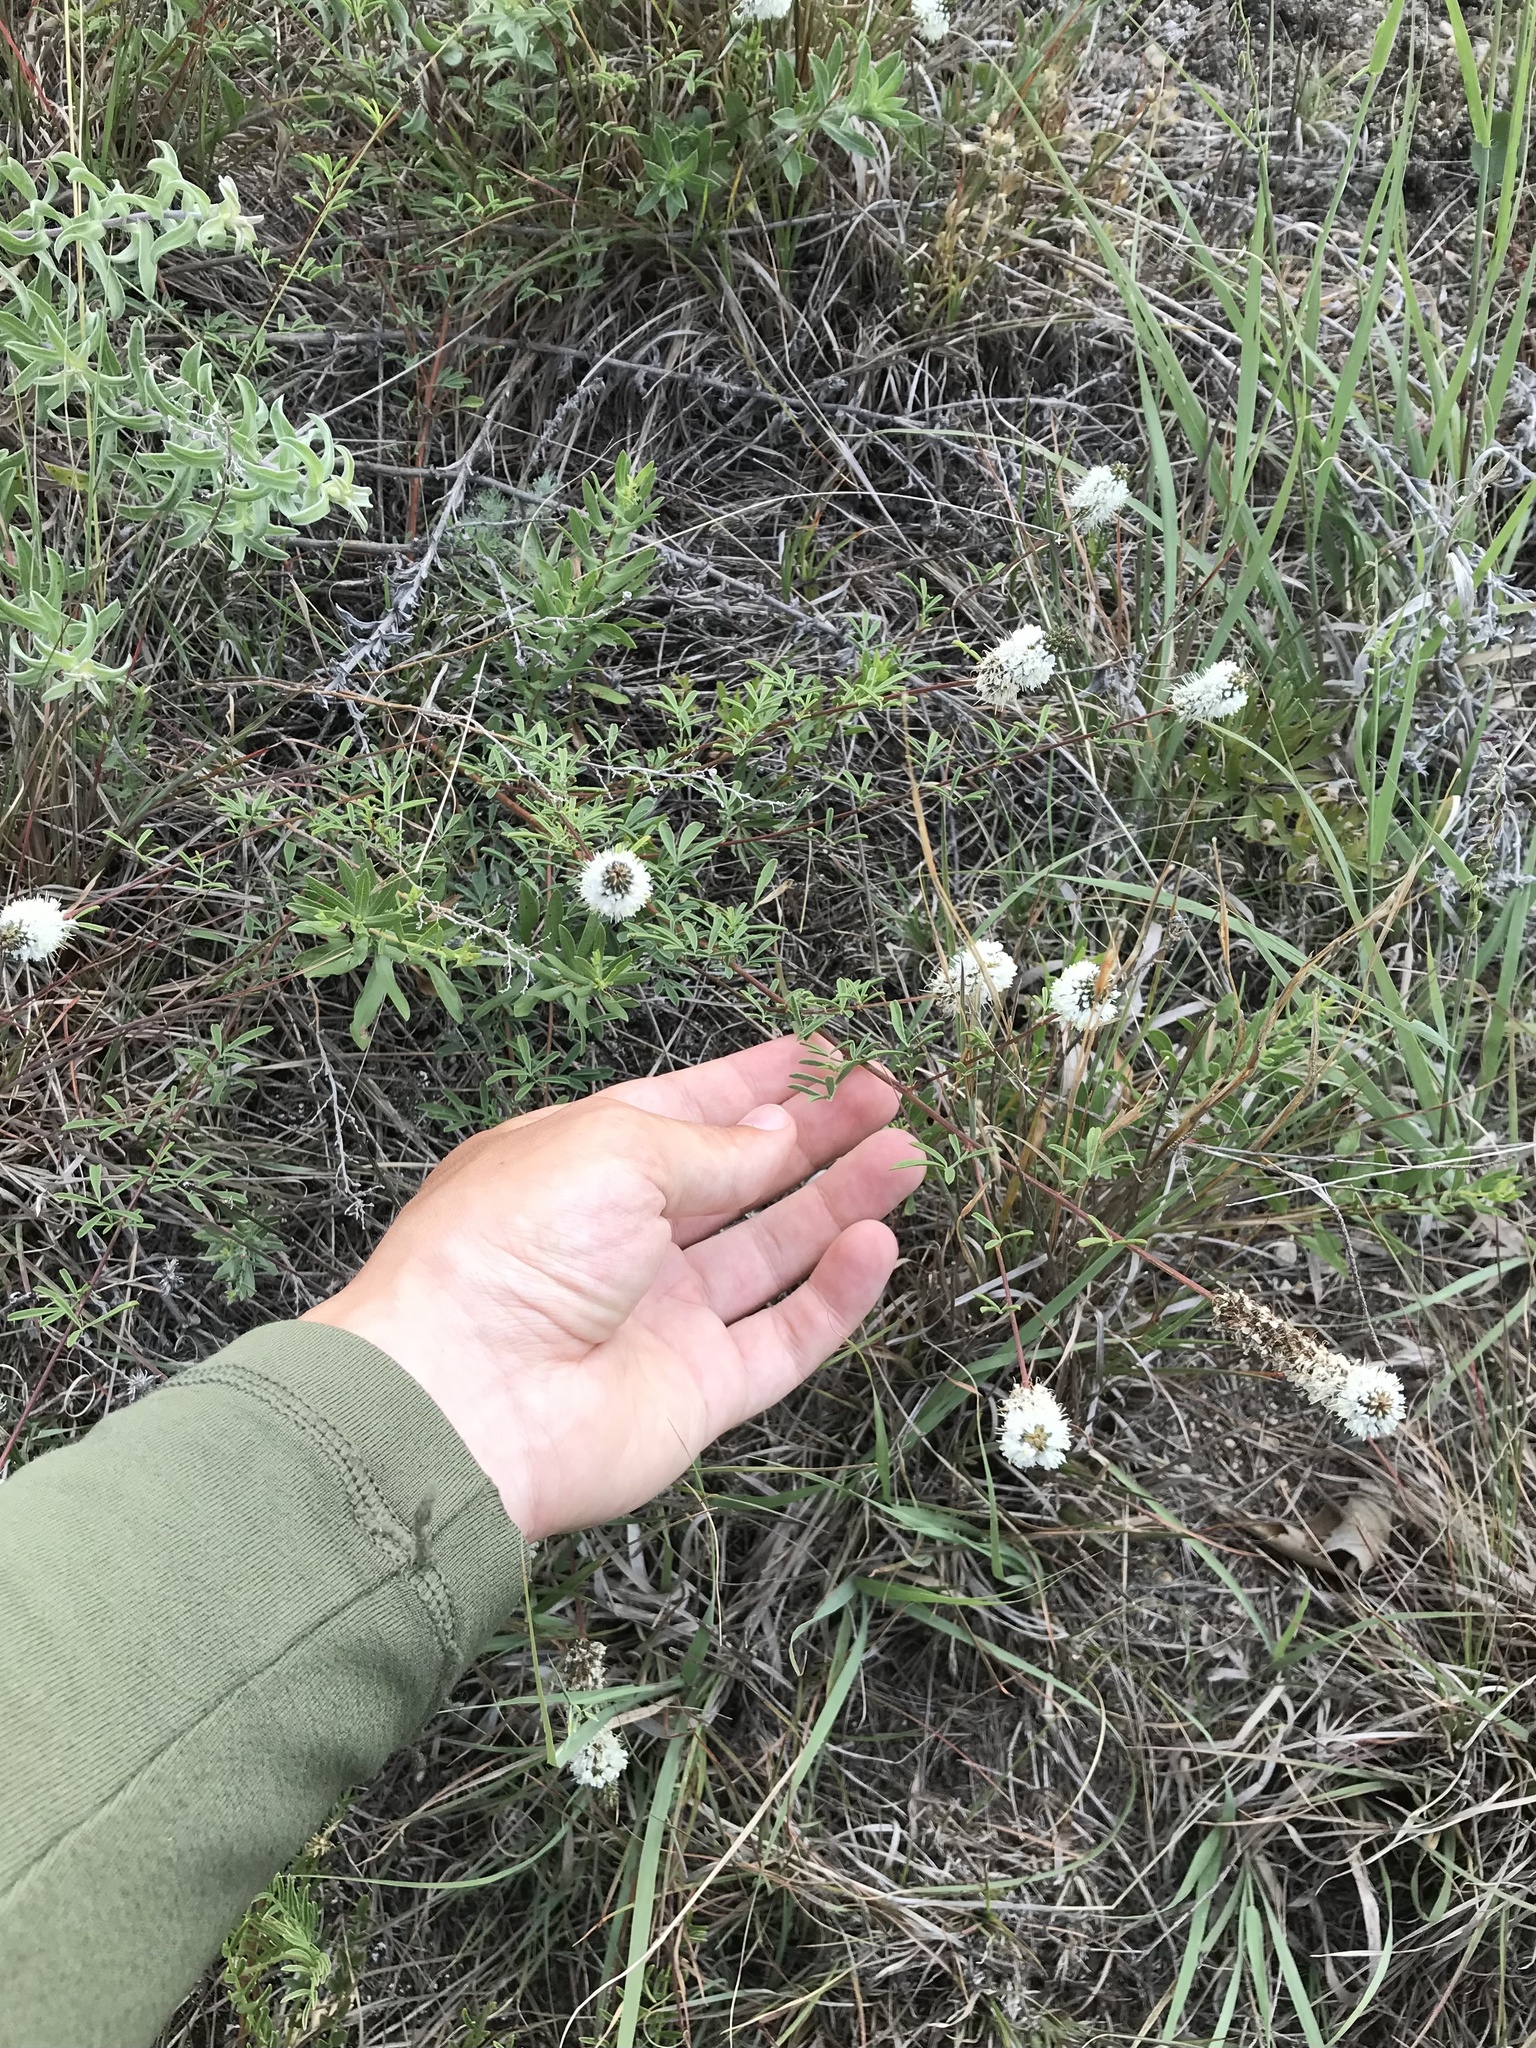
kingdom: Plantae
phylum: Tracheophyta
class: Magnoliopsida
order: Fabales
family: Fabaceae
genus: Dalea
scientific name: Dalea candida
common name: White prairie-clover
